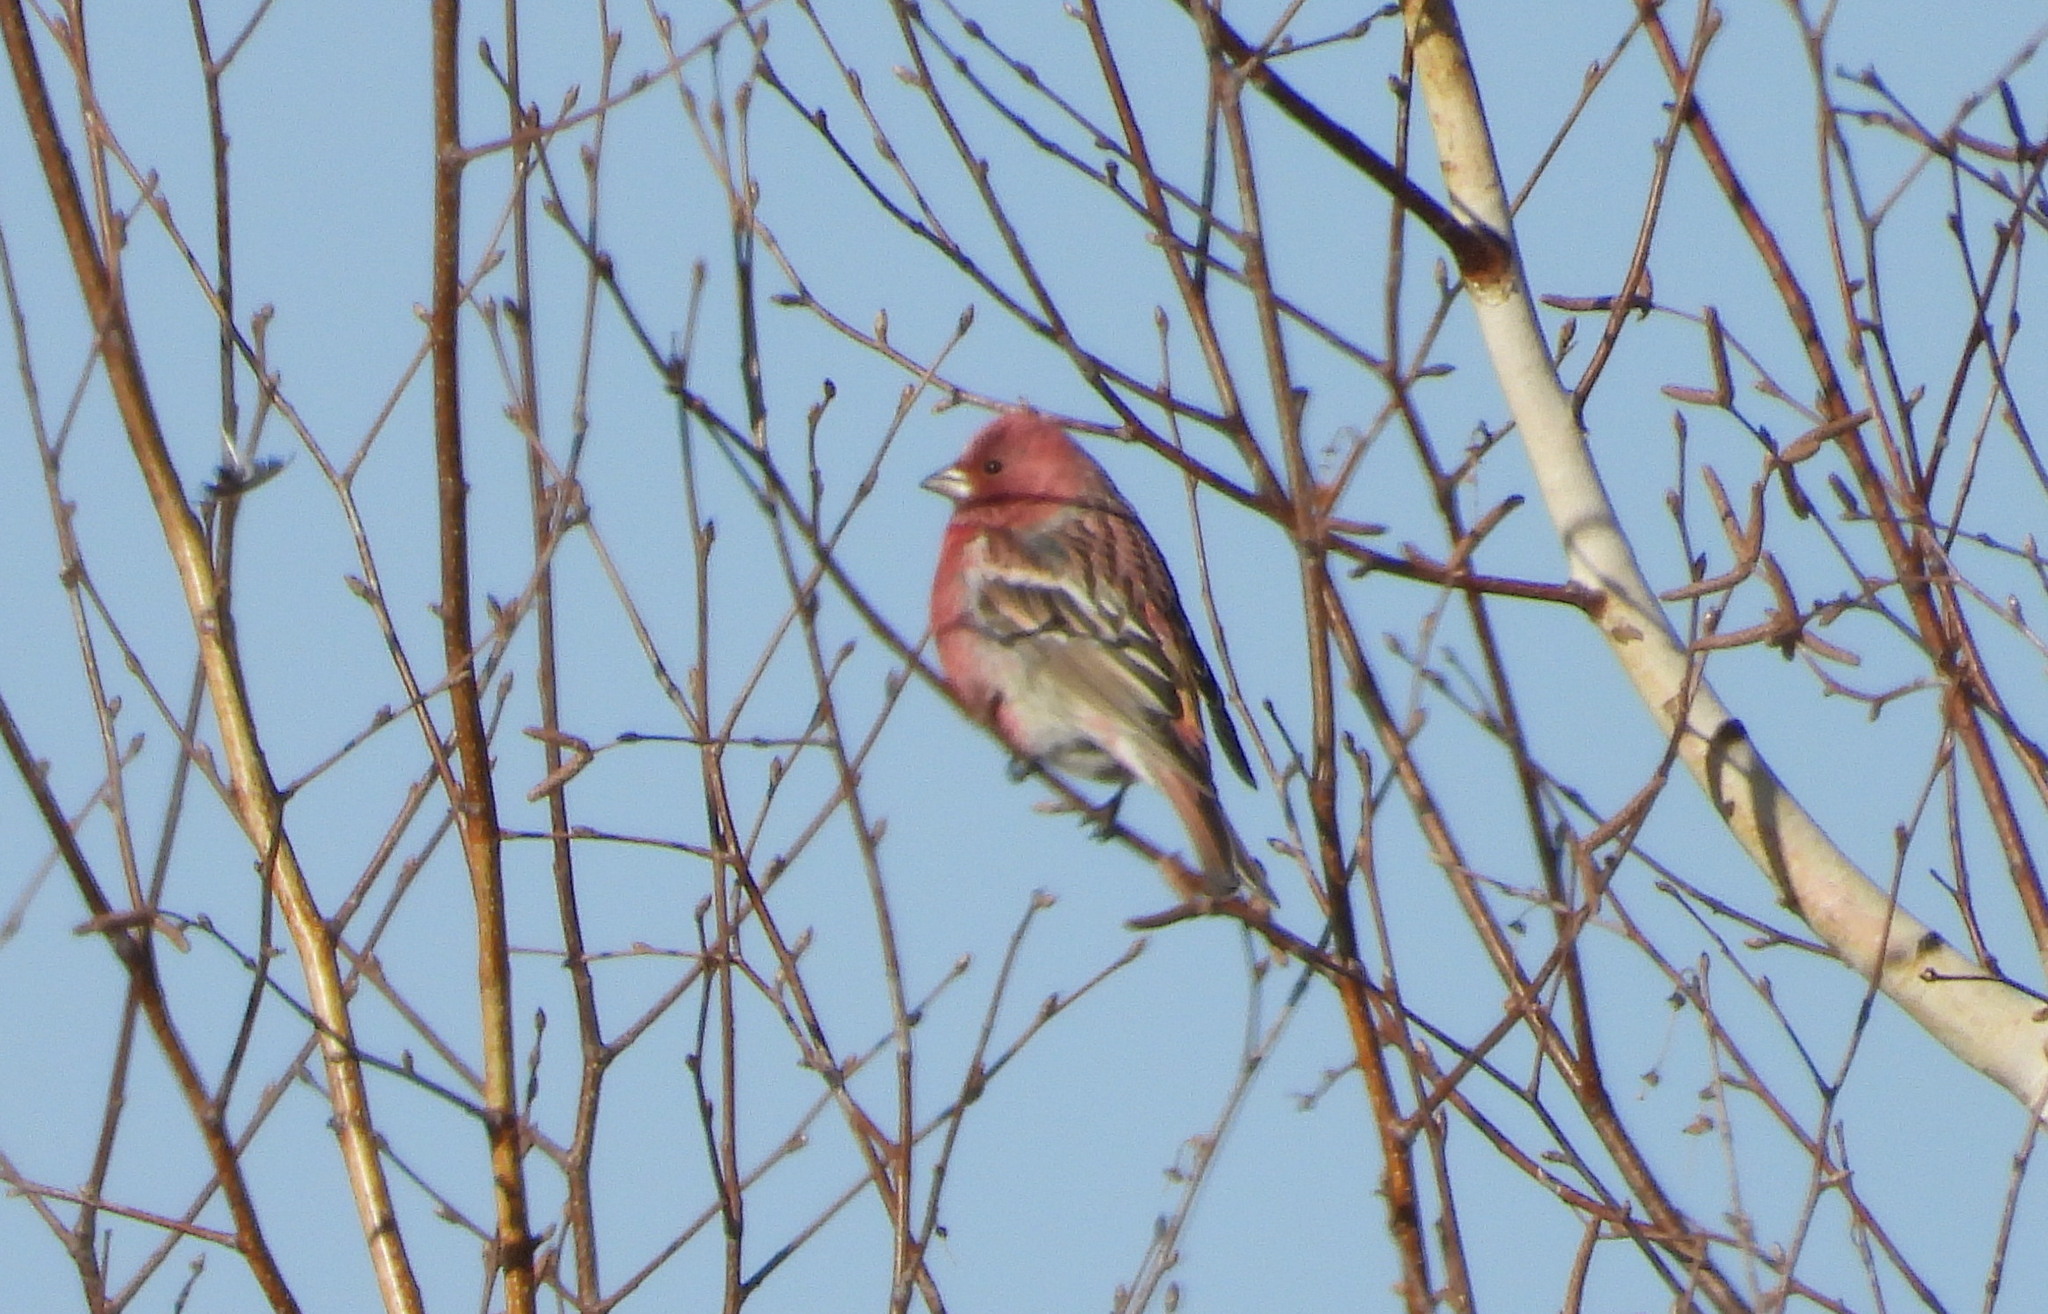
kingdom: Animalia
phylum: Chordata
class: Aves
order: Passeriformes
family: Fringillidae
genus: Carpodacus
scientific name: Carpodacus roseus
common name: Pallas's rosefinch
